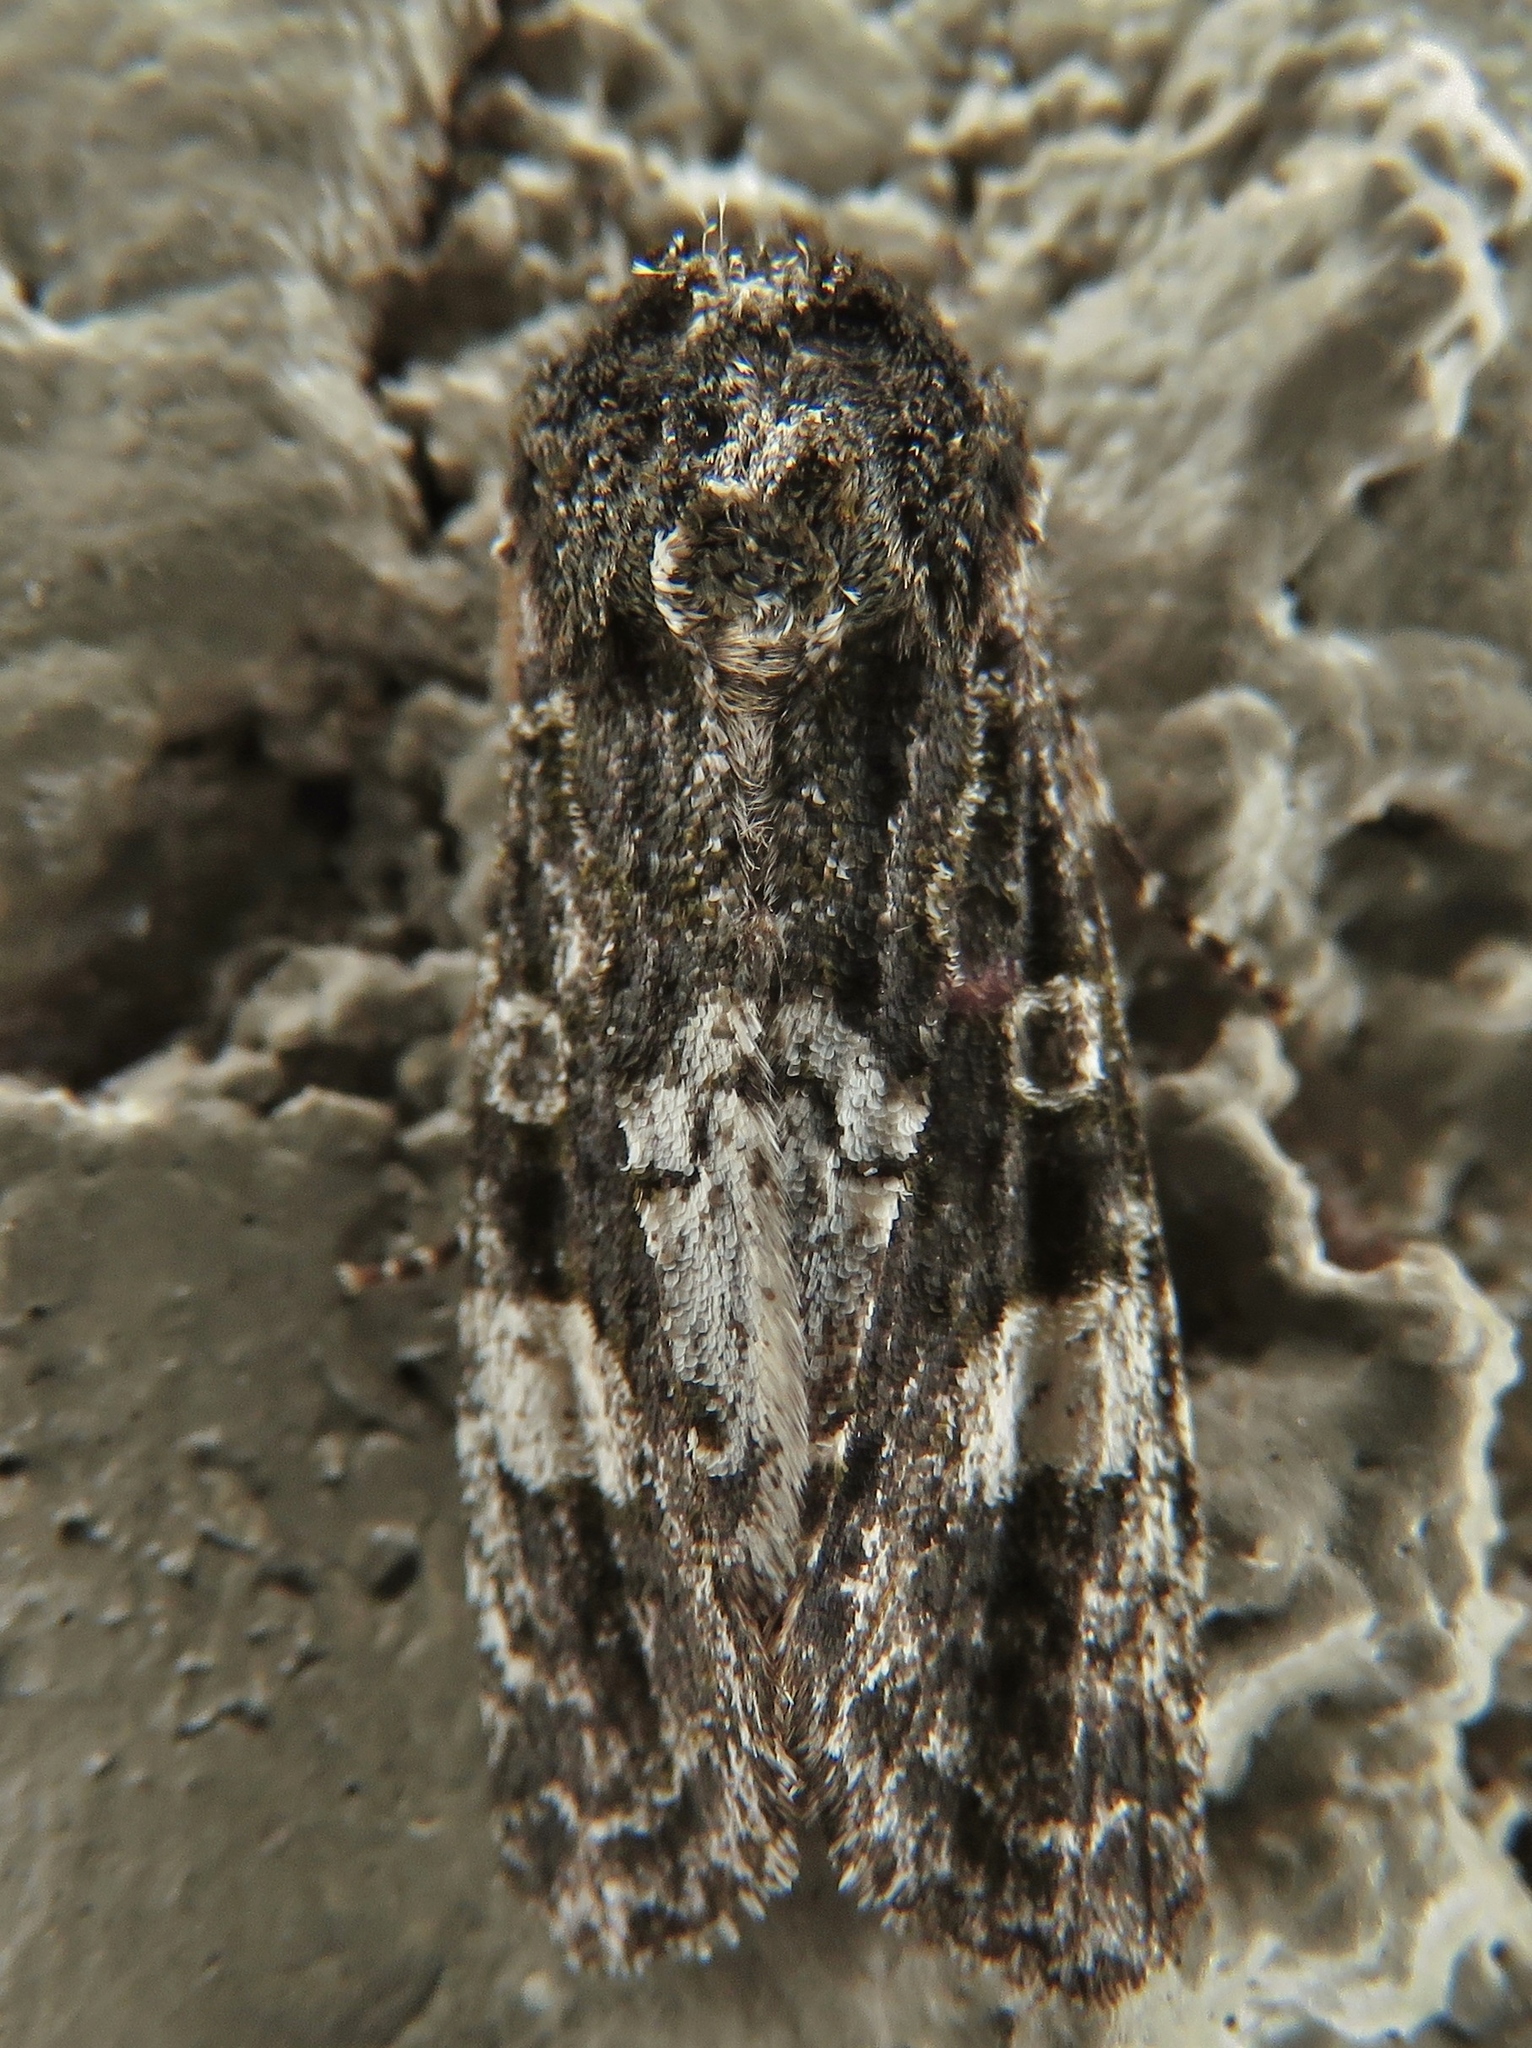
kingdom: Animalia
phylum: Arthropoda
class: Insecta
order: Lepidoptera
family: Noctuidae
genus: Psaphida
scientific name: Psaphida grotei
